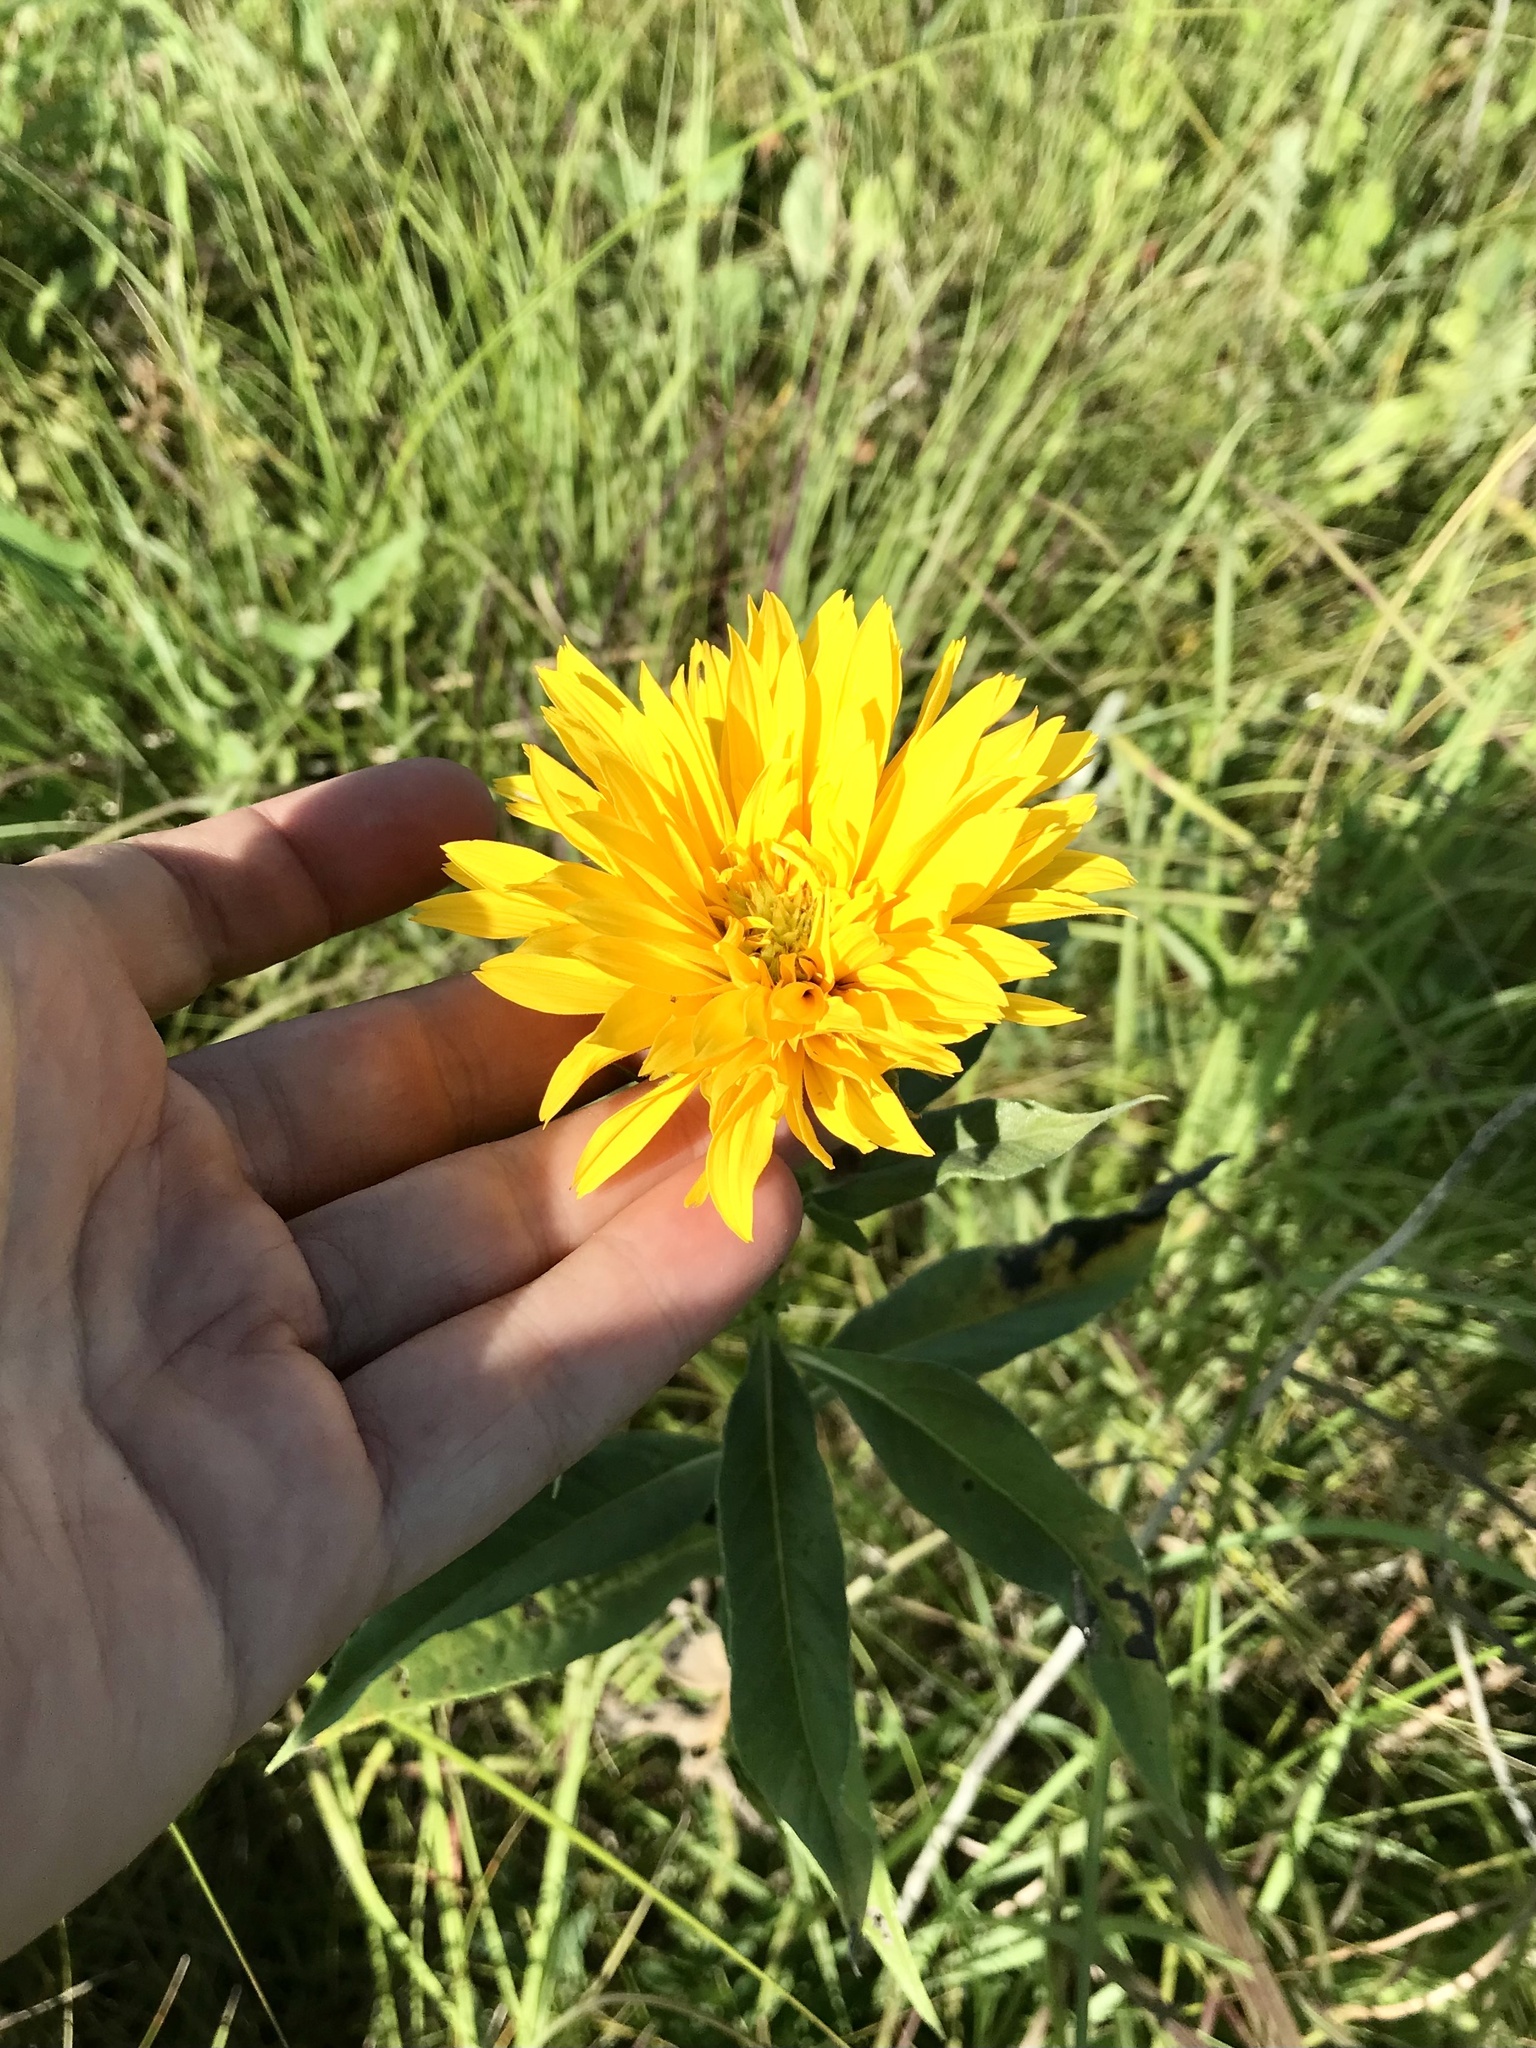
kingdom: Plantae
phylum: Tracheophyta
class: Magnoliopsida
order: Asterales
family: Asteraceae
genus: Helianthus
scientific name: Helianthus maximiliani
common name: Maximilian's sunflower
